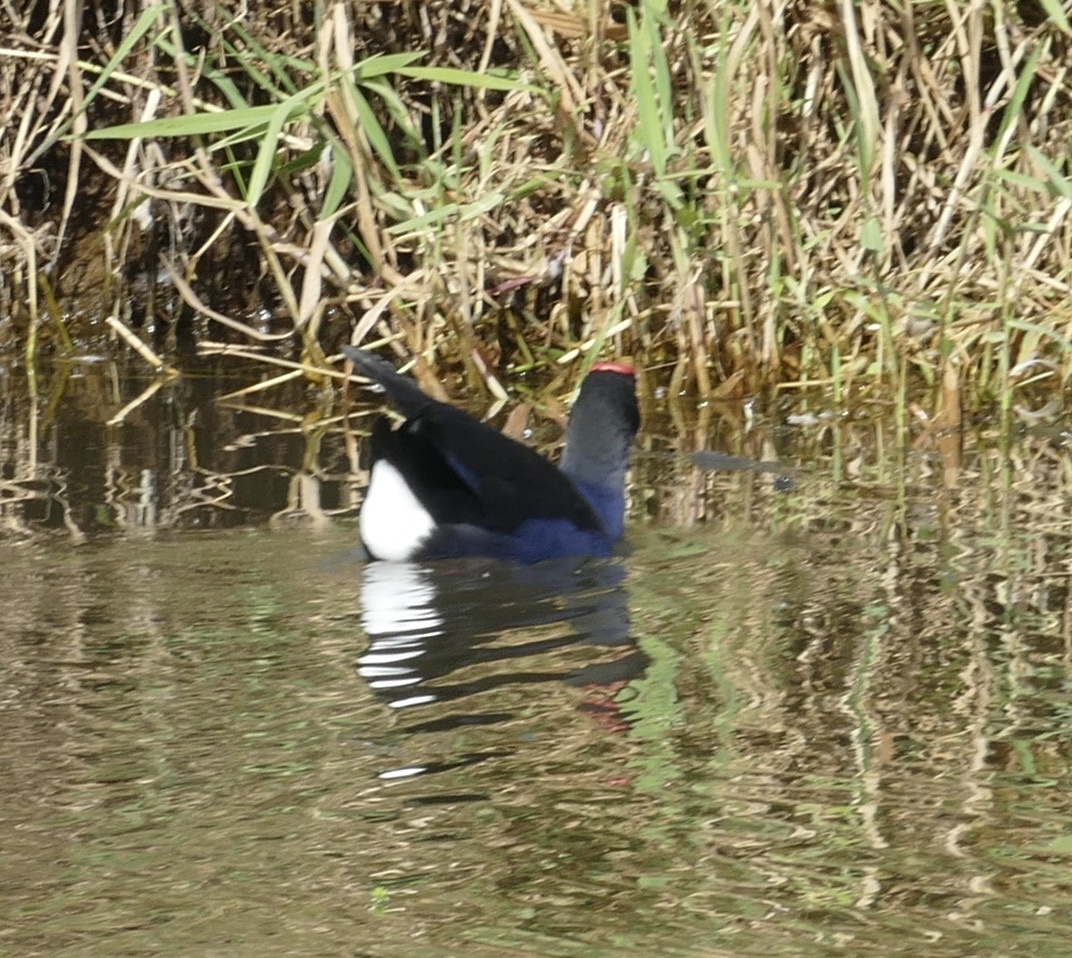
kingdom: Animalia
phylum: Chordata
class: Aves
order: Gruiformes
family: Rallidae
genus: Porphyrio
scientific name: Porphyrio melanotus
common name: Australasian swamphen
